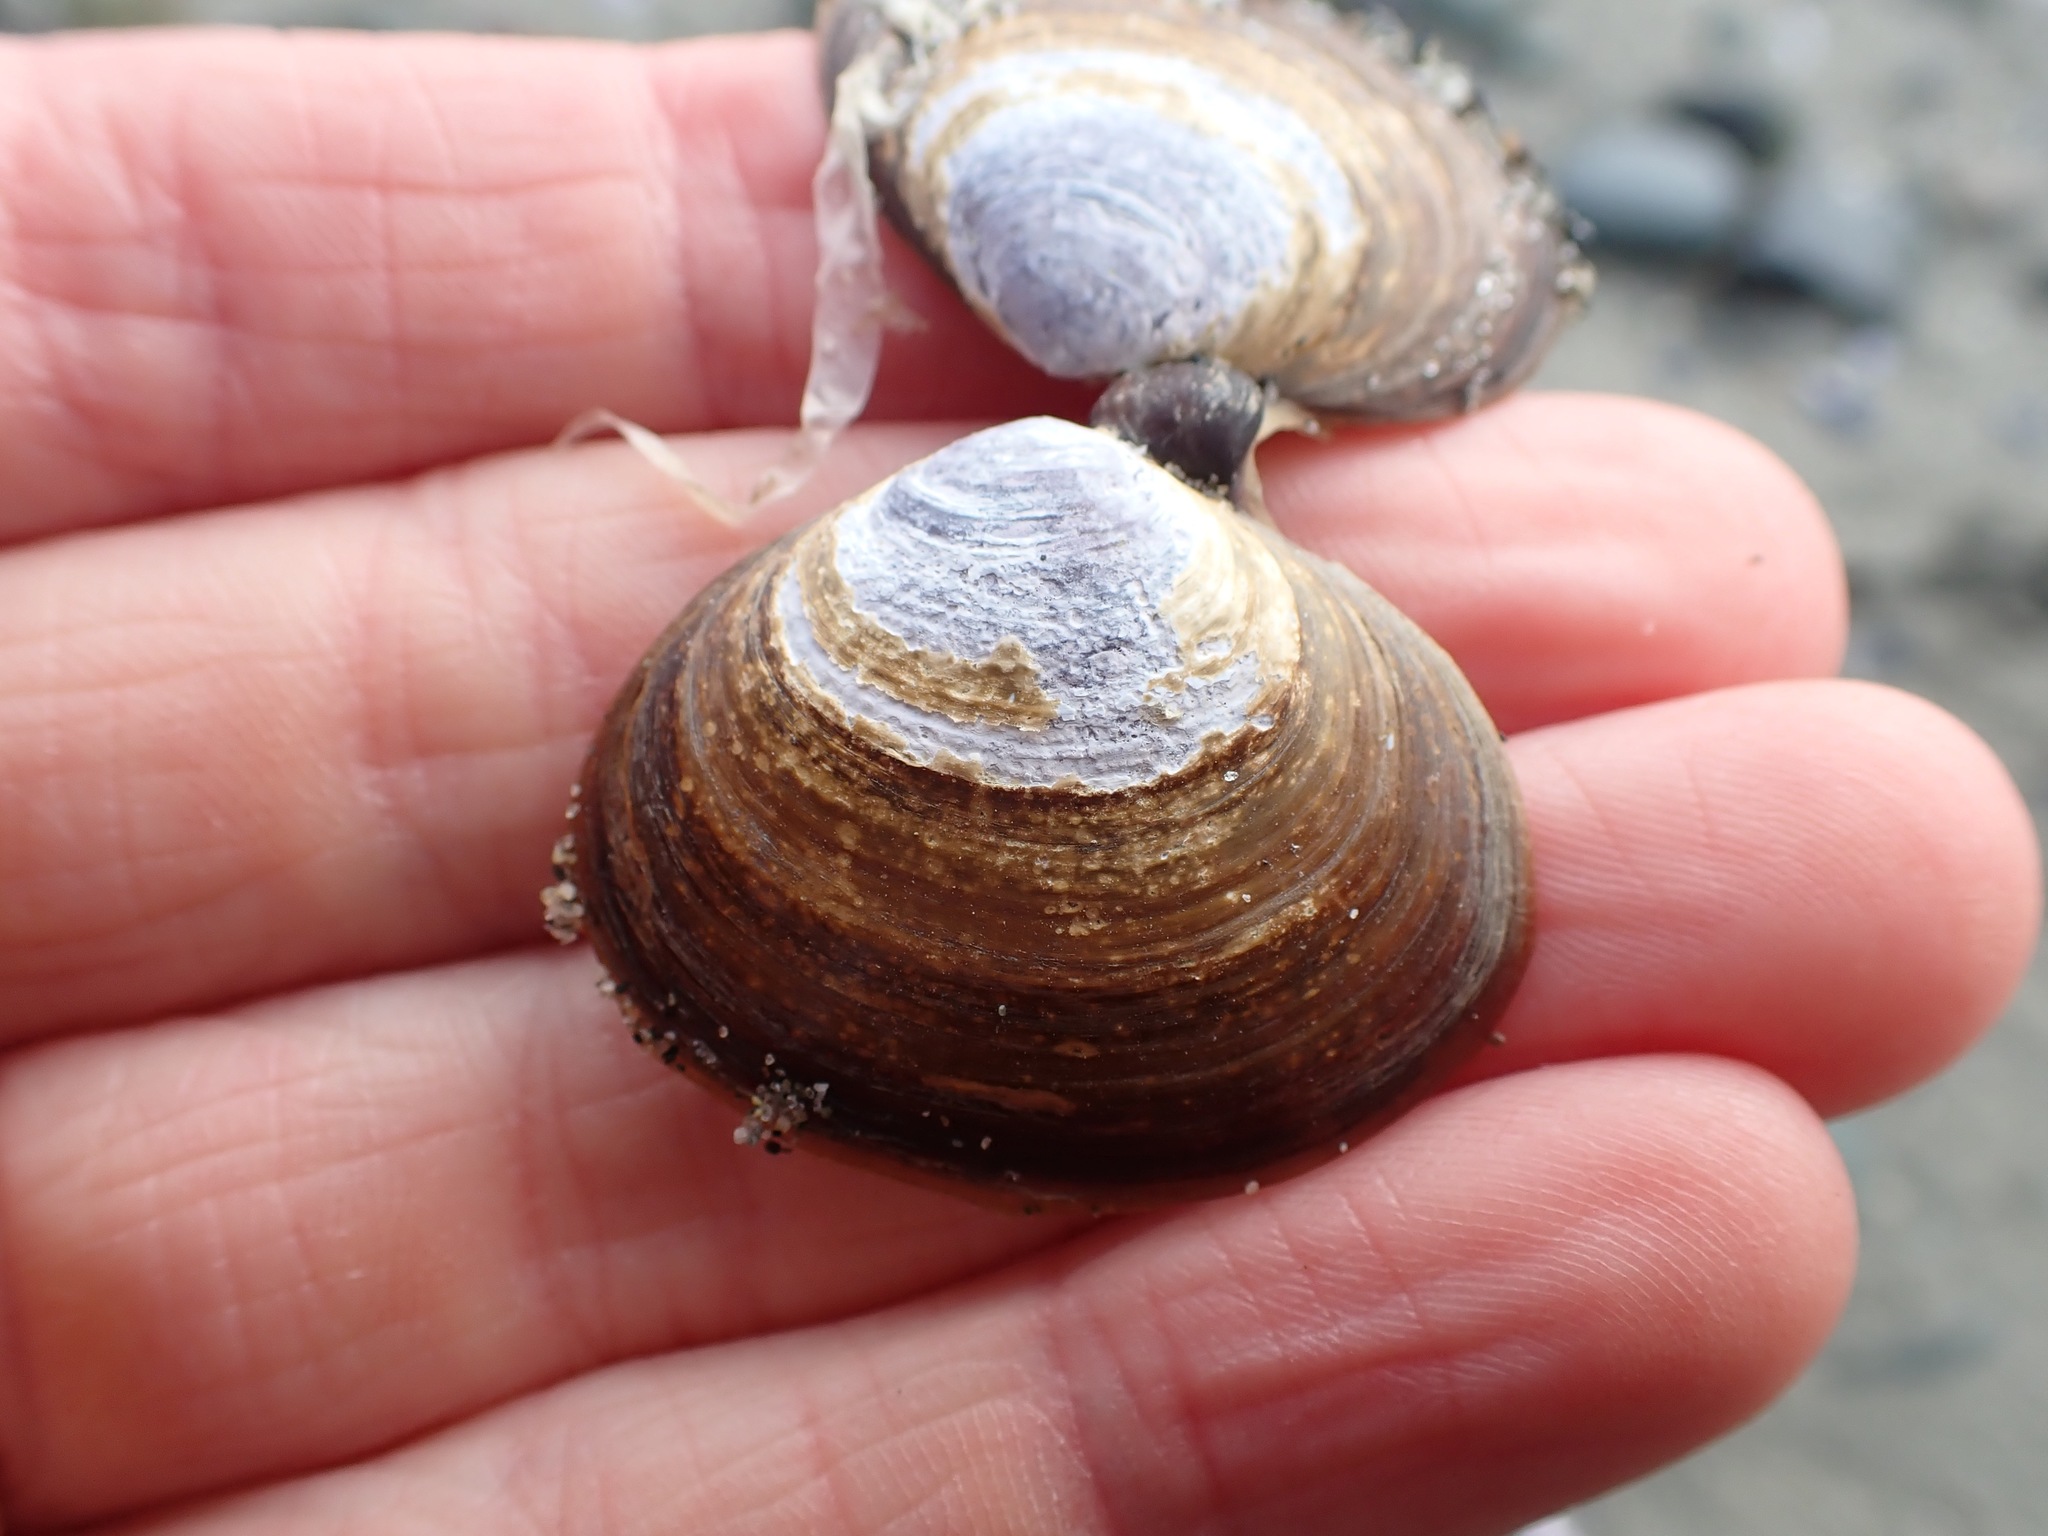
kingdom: Animalia
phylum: Mollusca
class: Bivalvia
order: Cardiida
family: Psammobiidae
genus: Nuttallia
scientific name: Nuttallia obscurata
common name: Purple mahogany-clam
